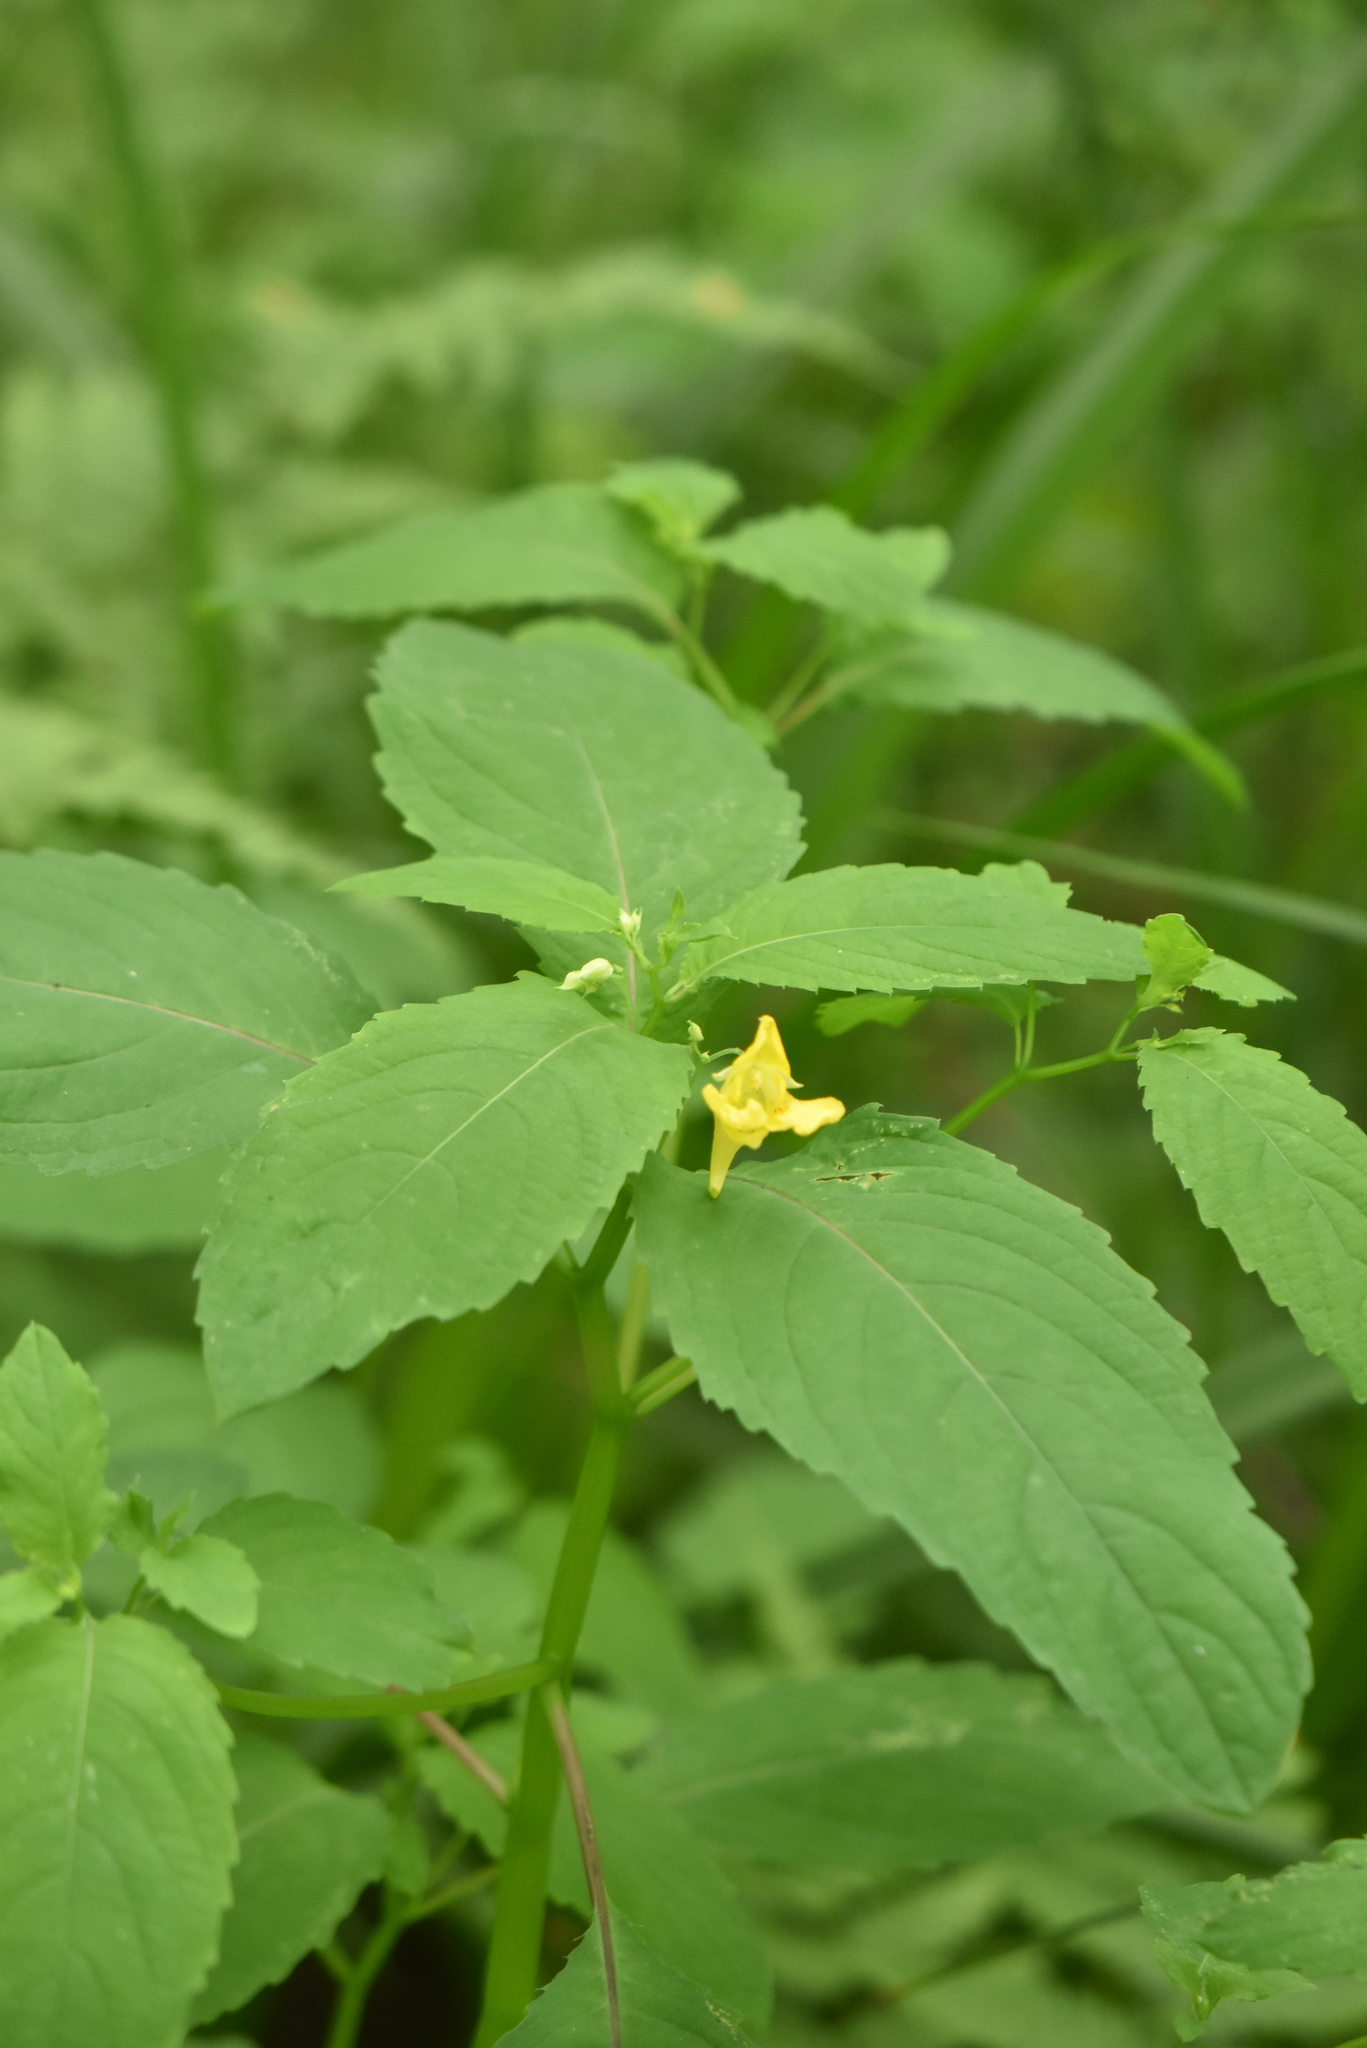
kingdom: Plantae
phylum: Tracheophyta
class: Magnoliopsida
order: Ericales
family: Balsaminaceae
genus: Impatiens
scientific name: Impatiens noli-tangere
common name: Touch-me-not balsam
